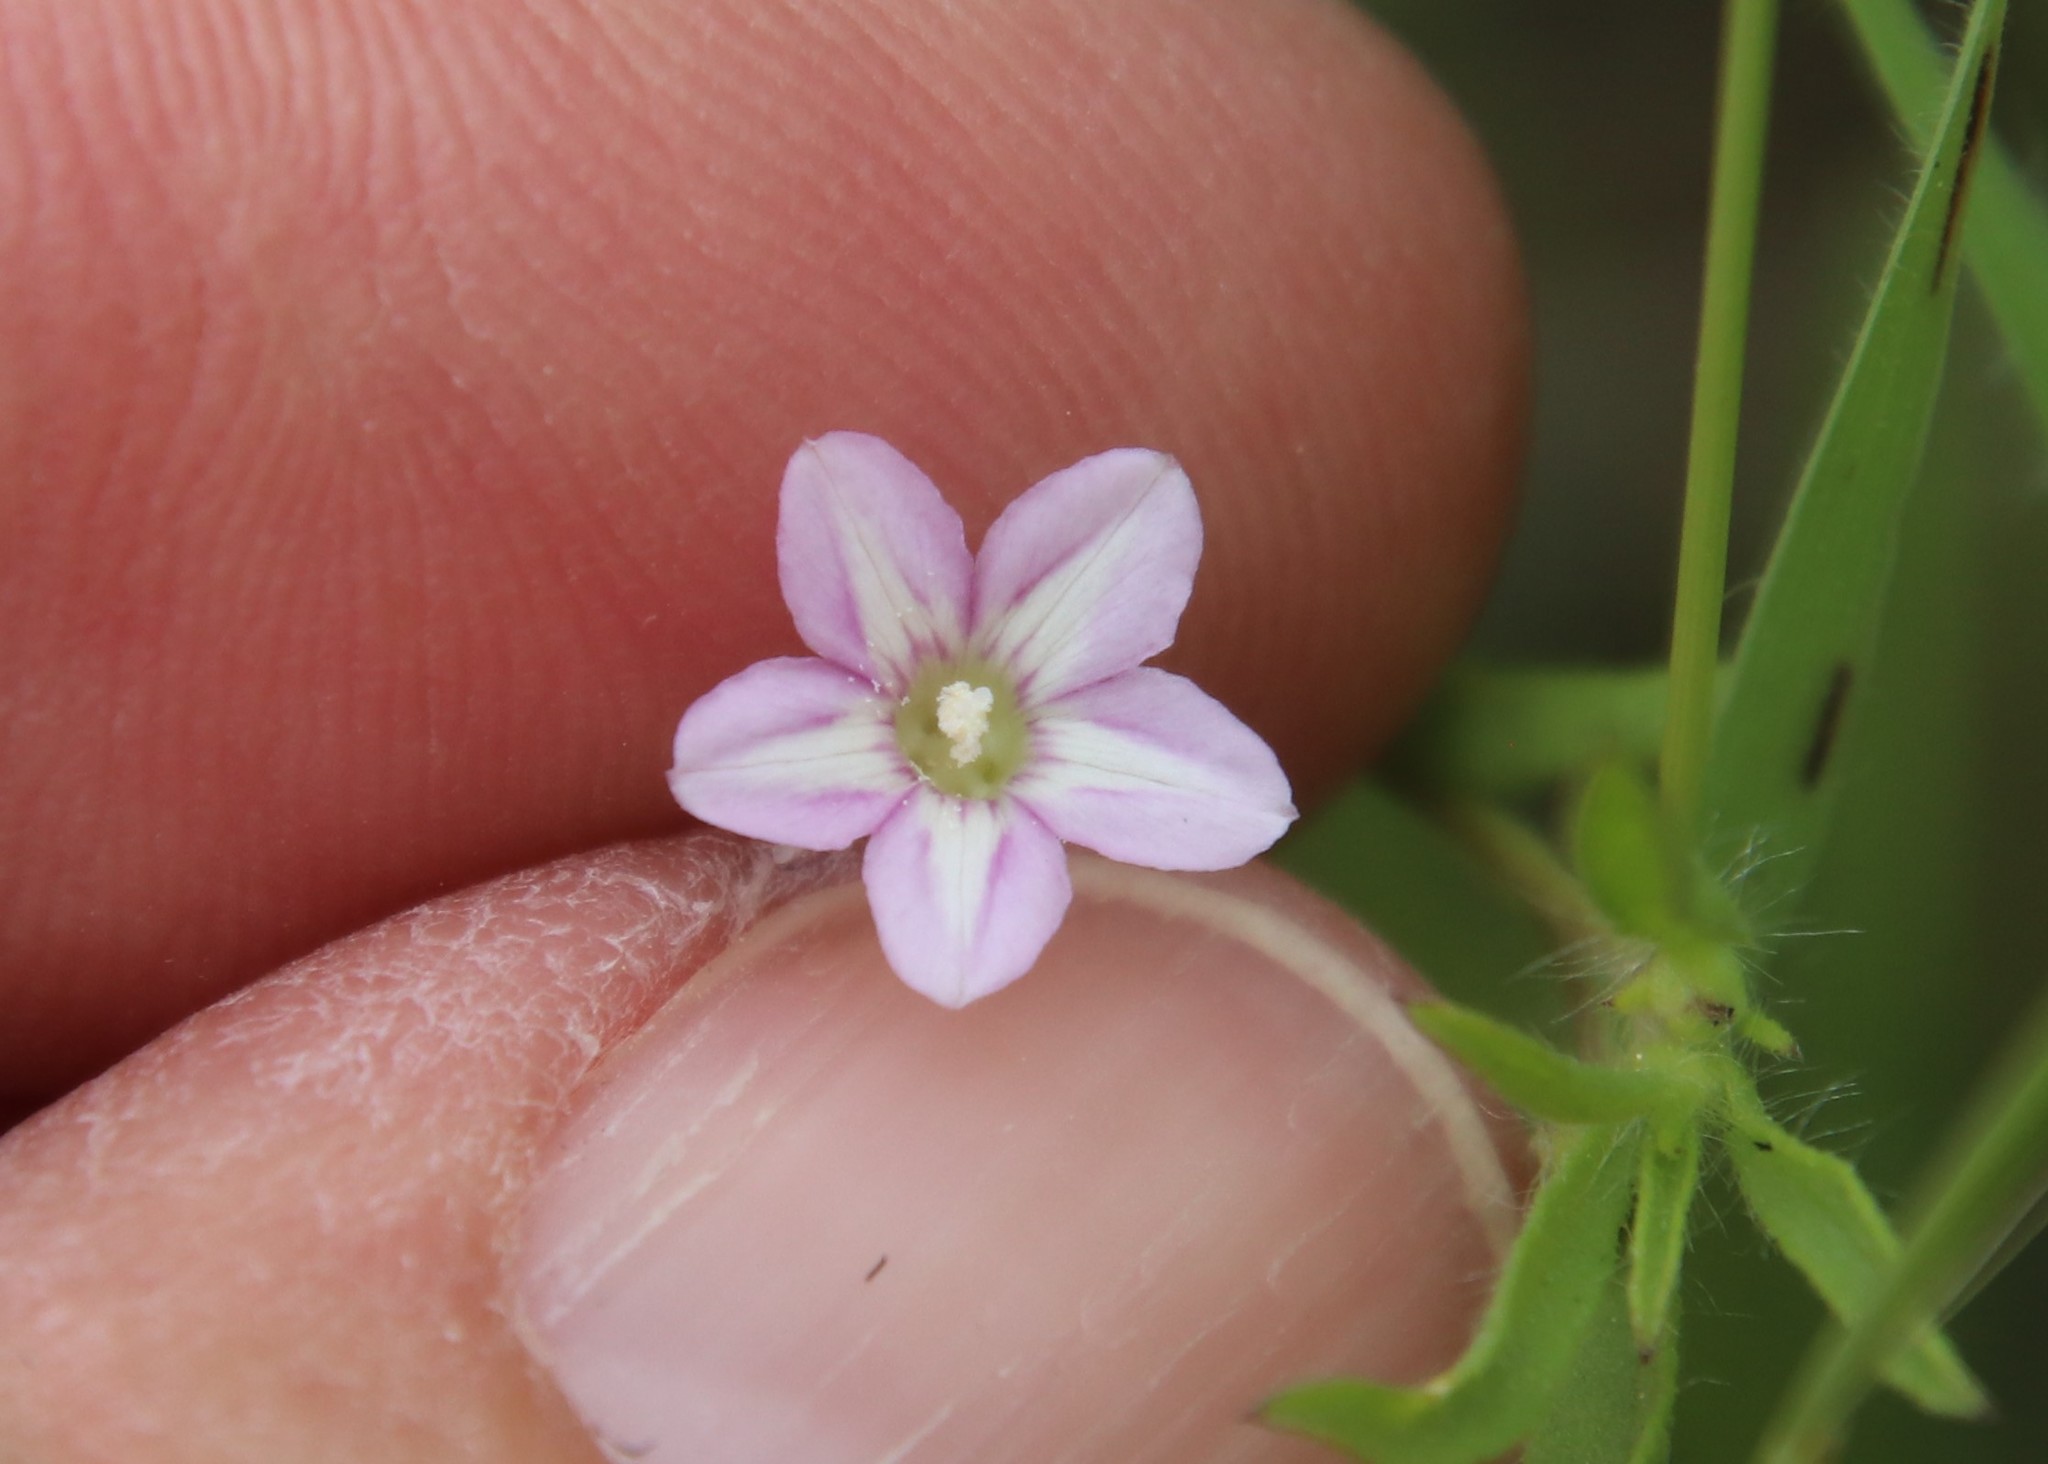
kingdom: Plantae
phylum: Tracheophyta
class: Magnoliopsida
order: Solanales
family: Convolvulaceae
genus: Convolvulus
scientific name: Convolvulus simulans
